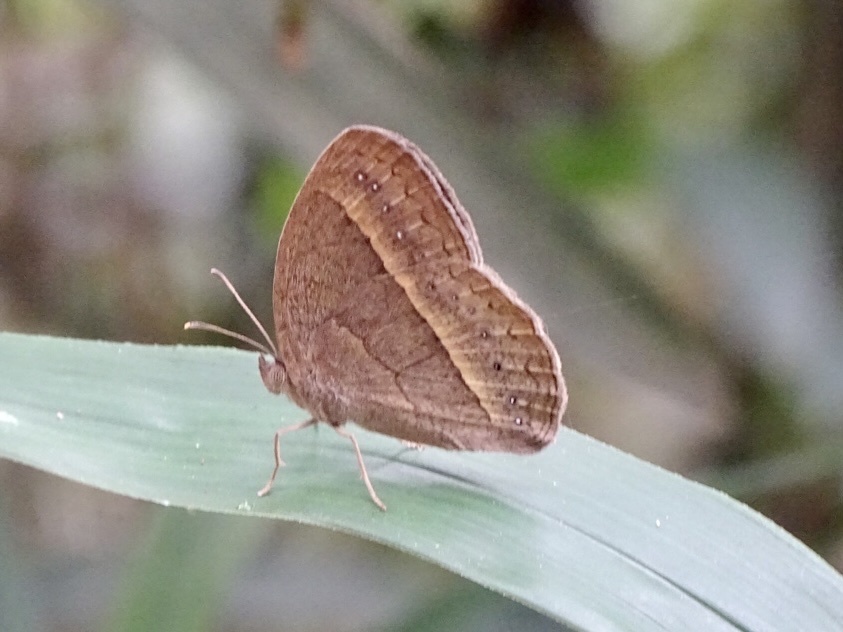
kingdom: Animalia
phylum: Arthropoda
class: Insecta
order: Lepidoptera
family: Nymphalidae
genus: Mycalesis
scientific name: Mycalesis mineus
